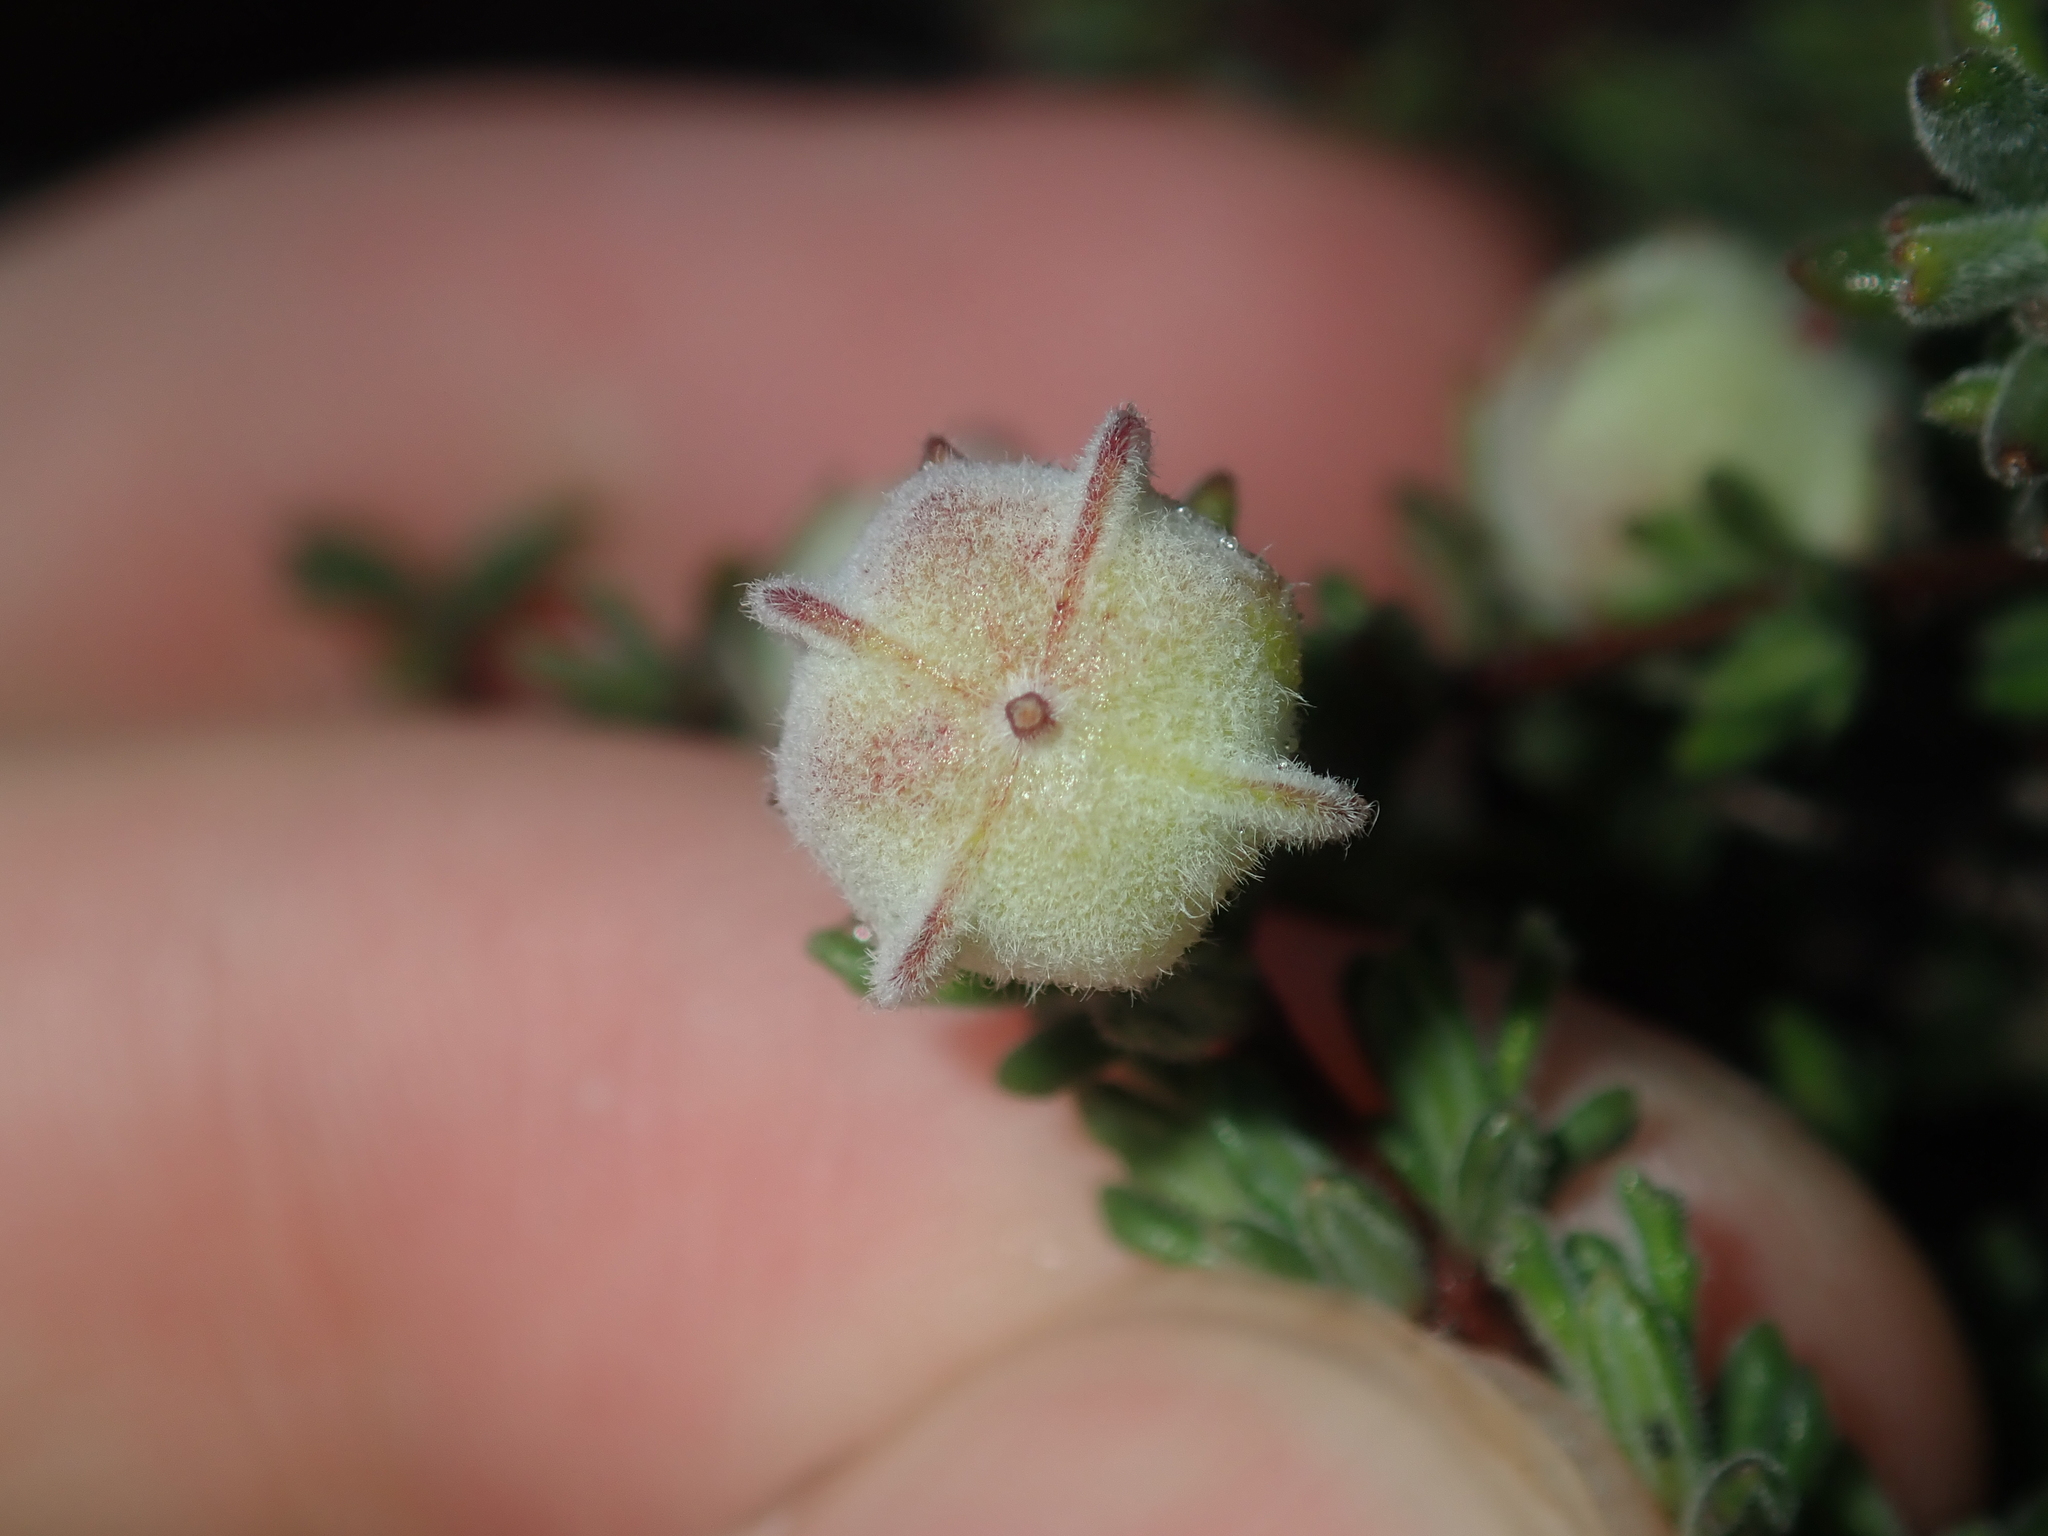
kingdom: Plantae
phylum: Tracheophyta
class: Magnoliopsida
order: Sapindales
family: Sapindaceae
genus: Dodonaea
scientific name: Dodonaea ericoides
